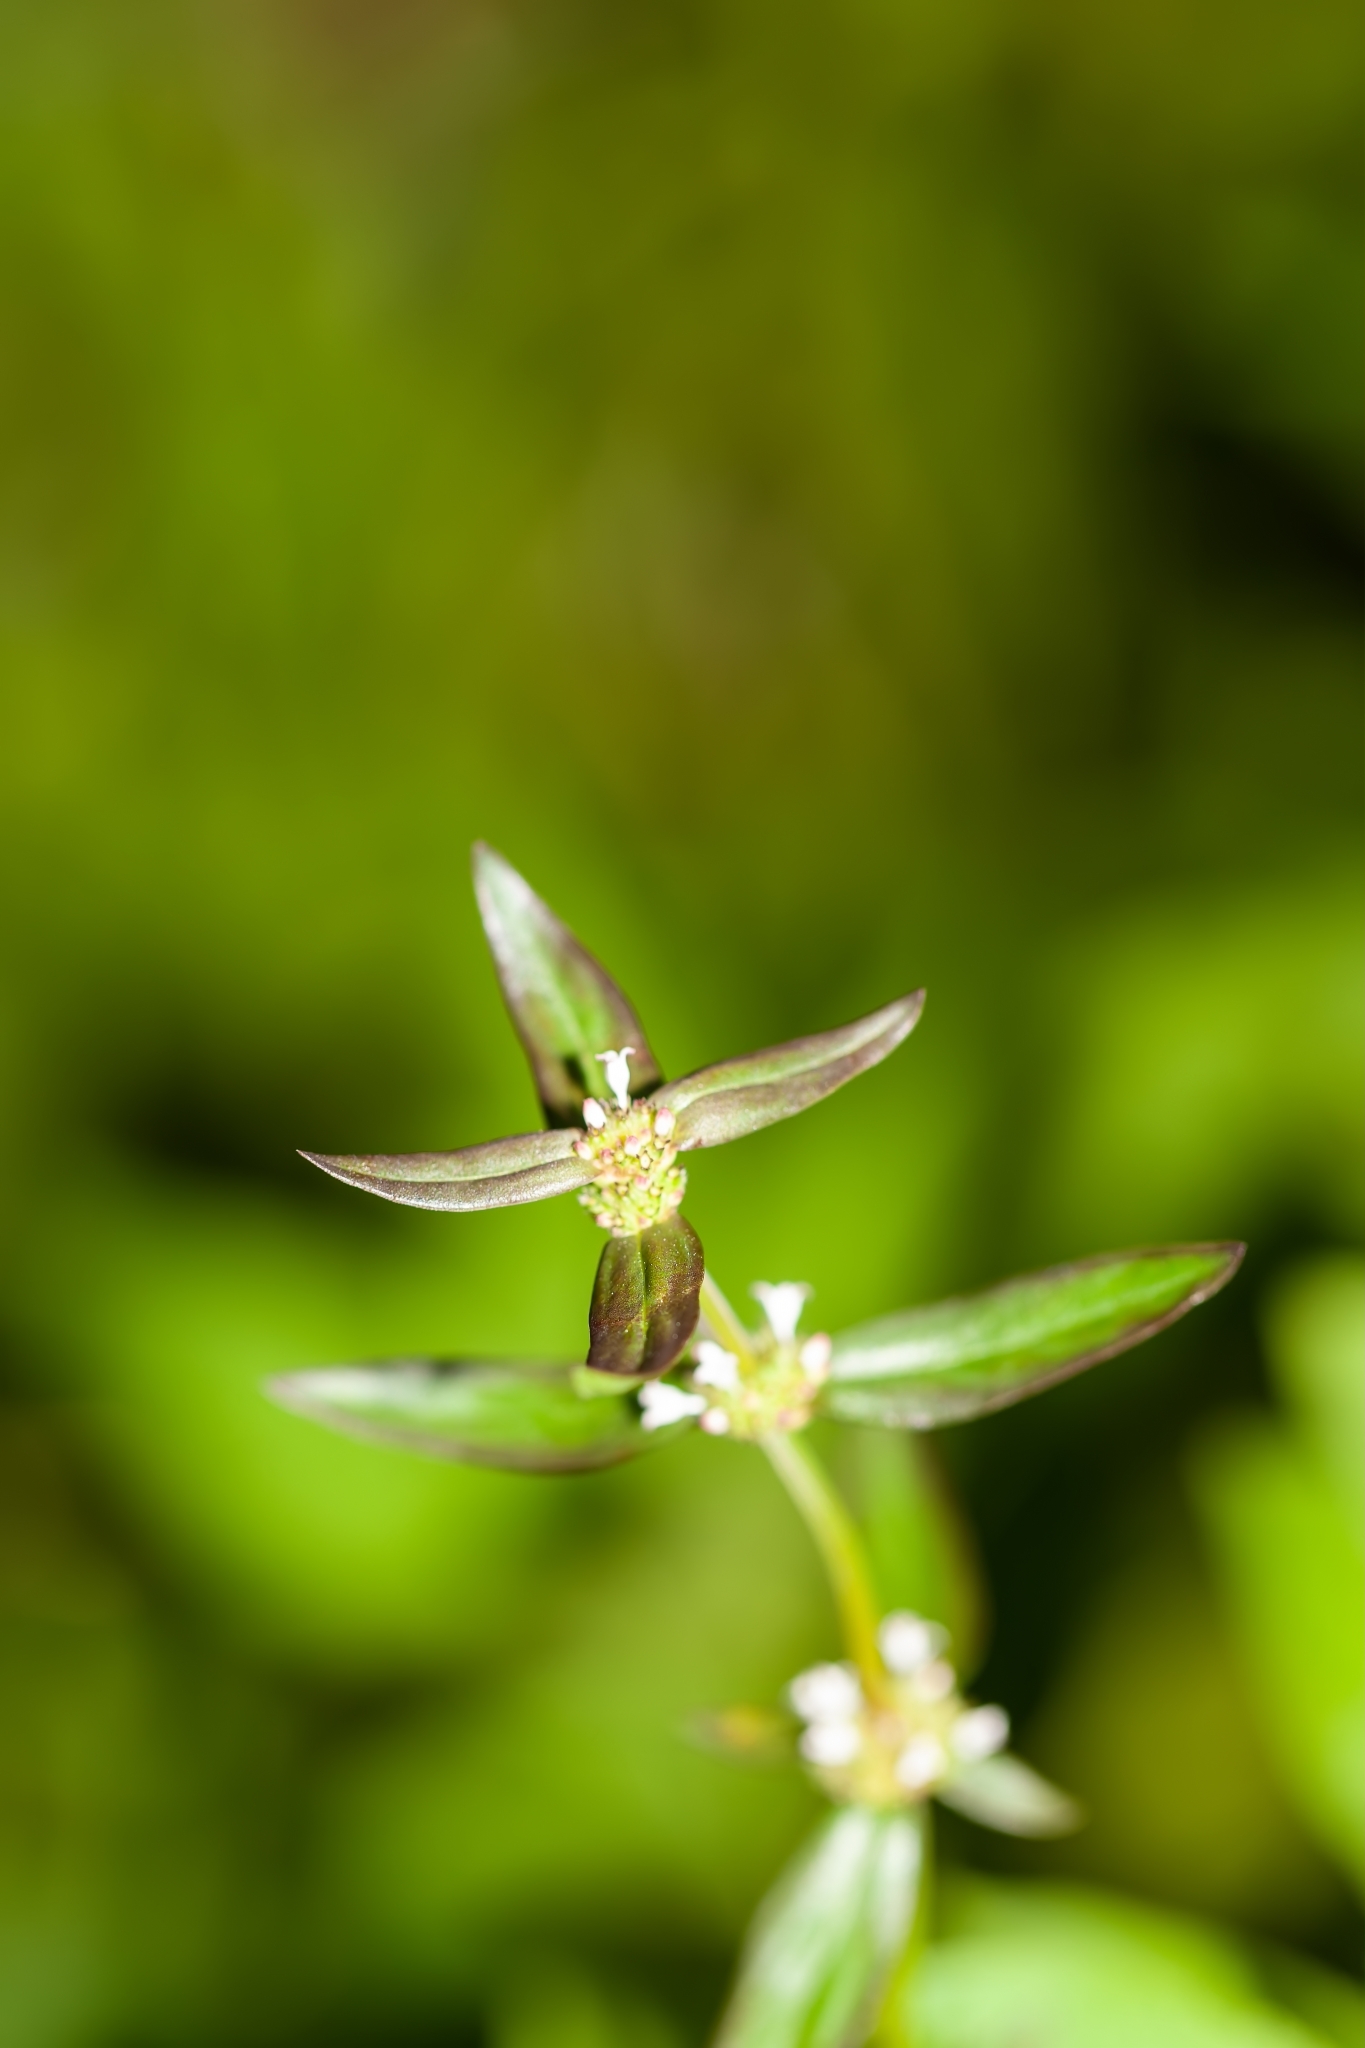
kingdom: Plantae
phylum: Tracheophyta
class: Magnoliopsida
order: Gentianales
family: Rubiaceae
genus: Spermacoce
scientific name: Spermacoce remota
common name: Woodland false buttonweed
